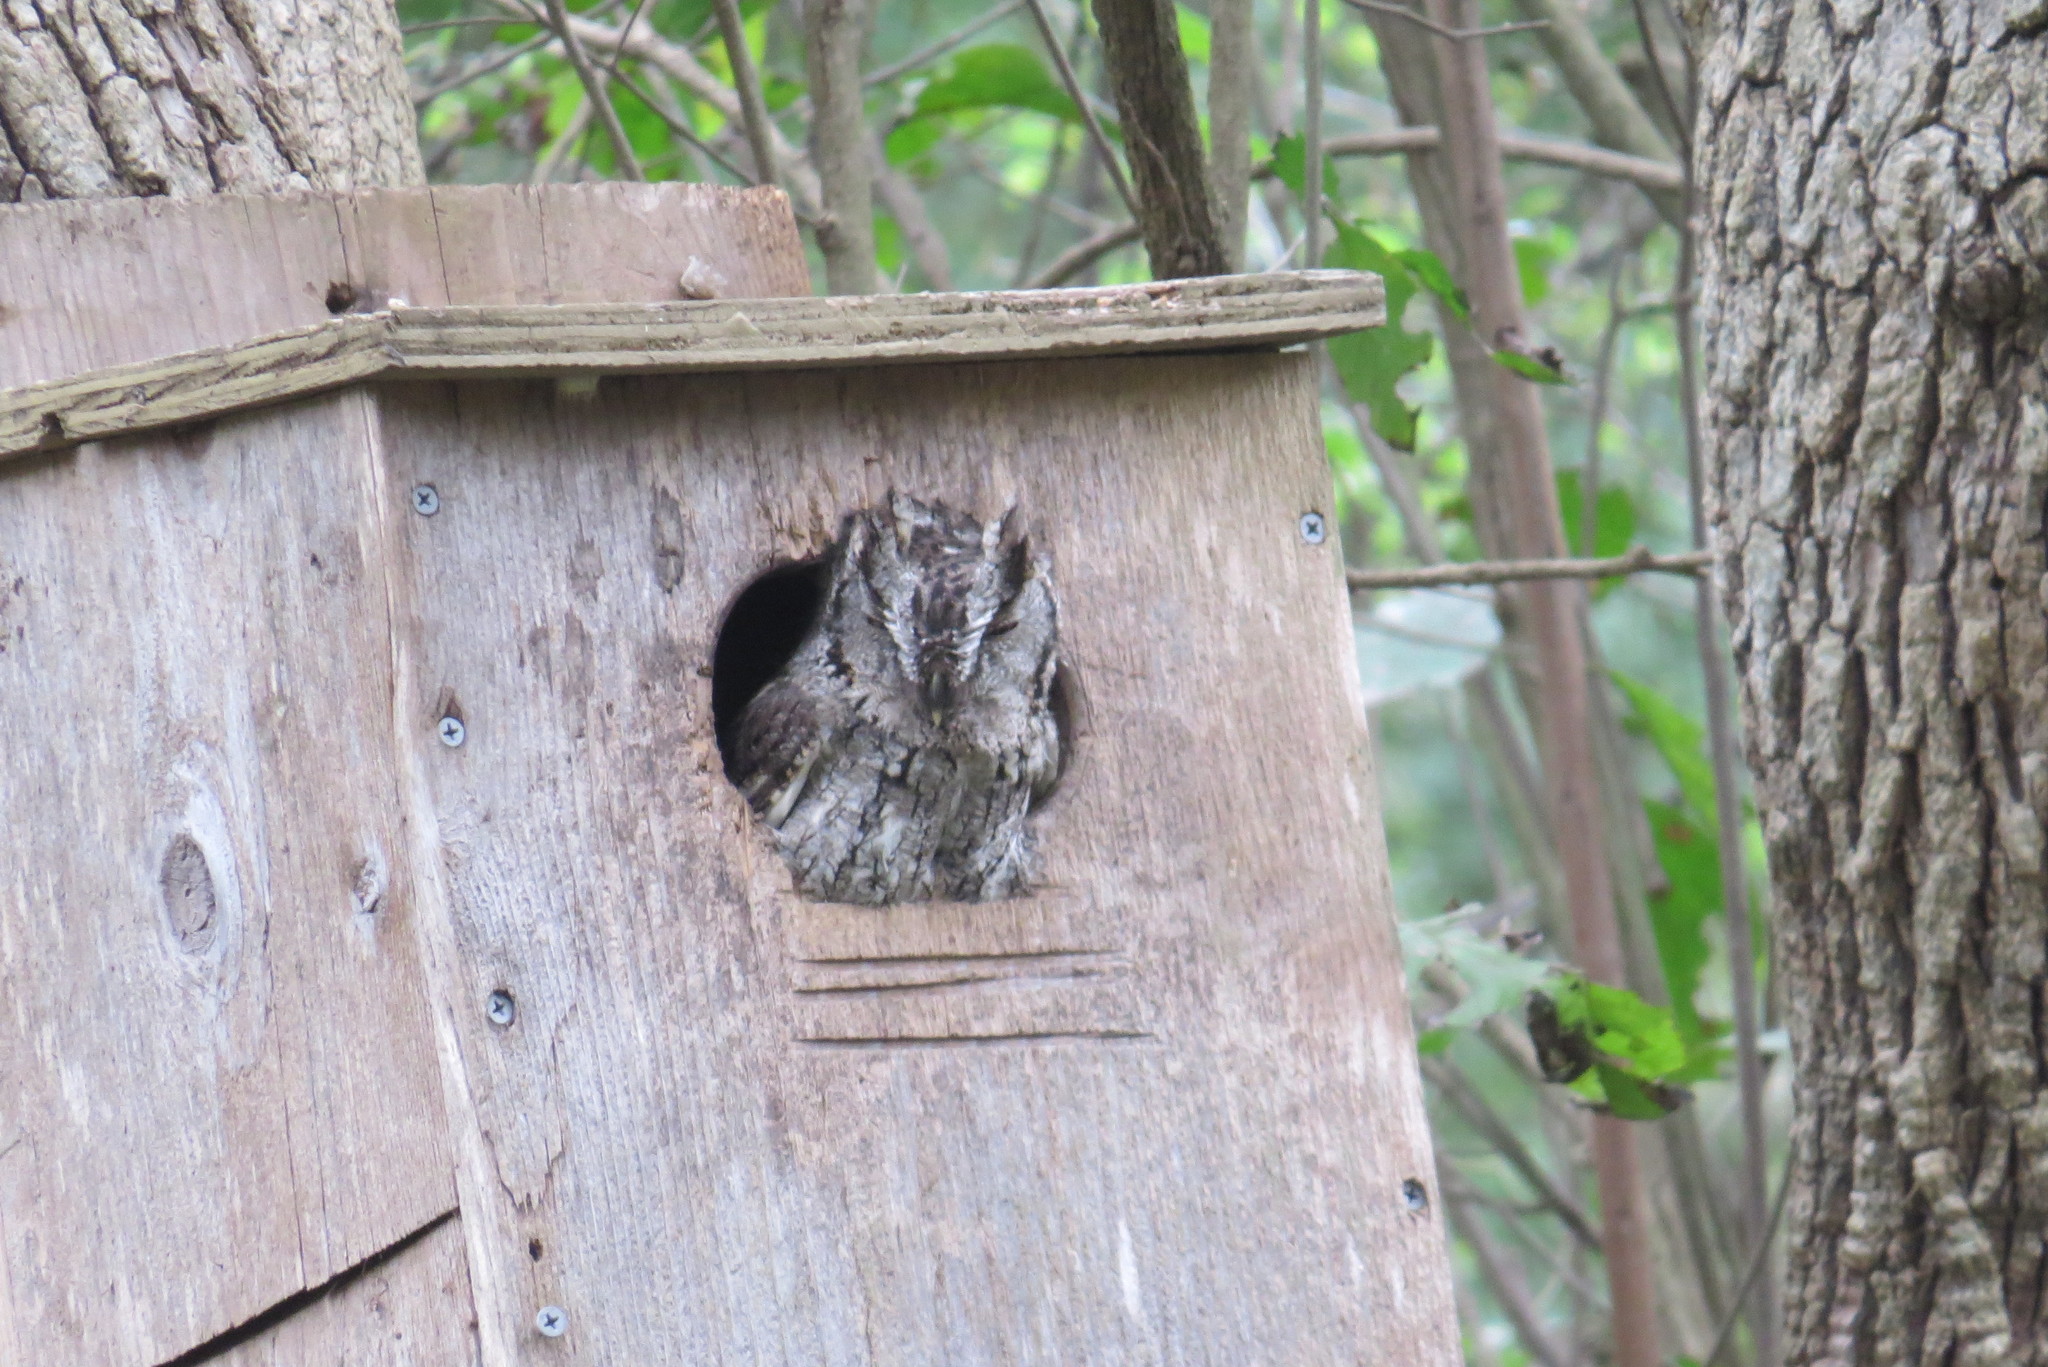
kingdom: Animalia
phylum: Chordata
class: Aves
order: Strigiformes
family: Strigidae
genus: Megascops
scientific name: Megascops asio
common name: Eastern screech-owl
